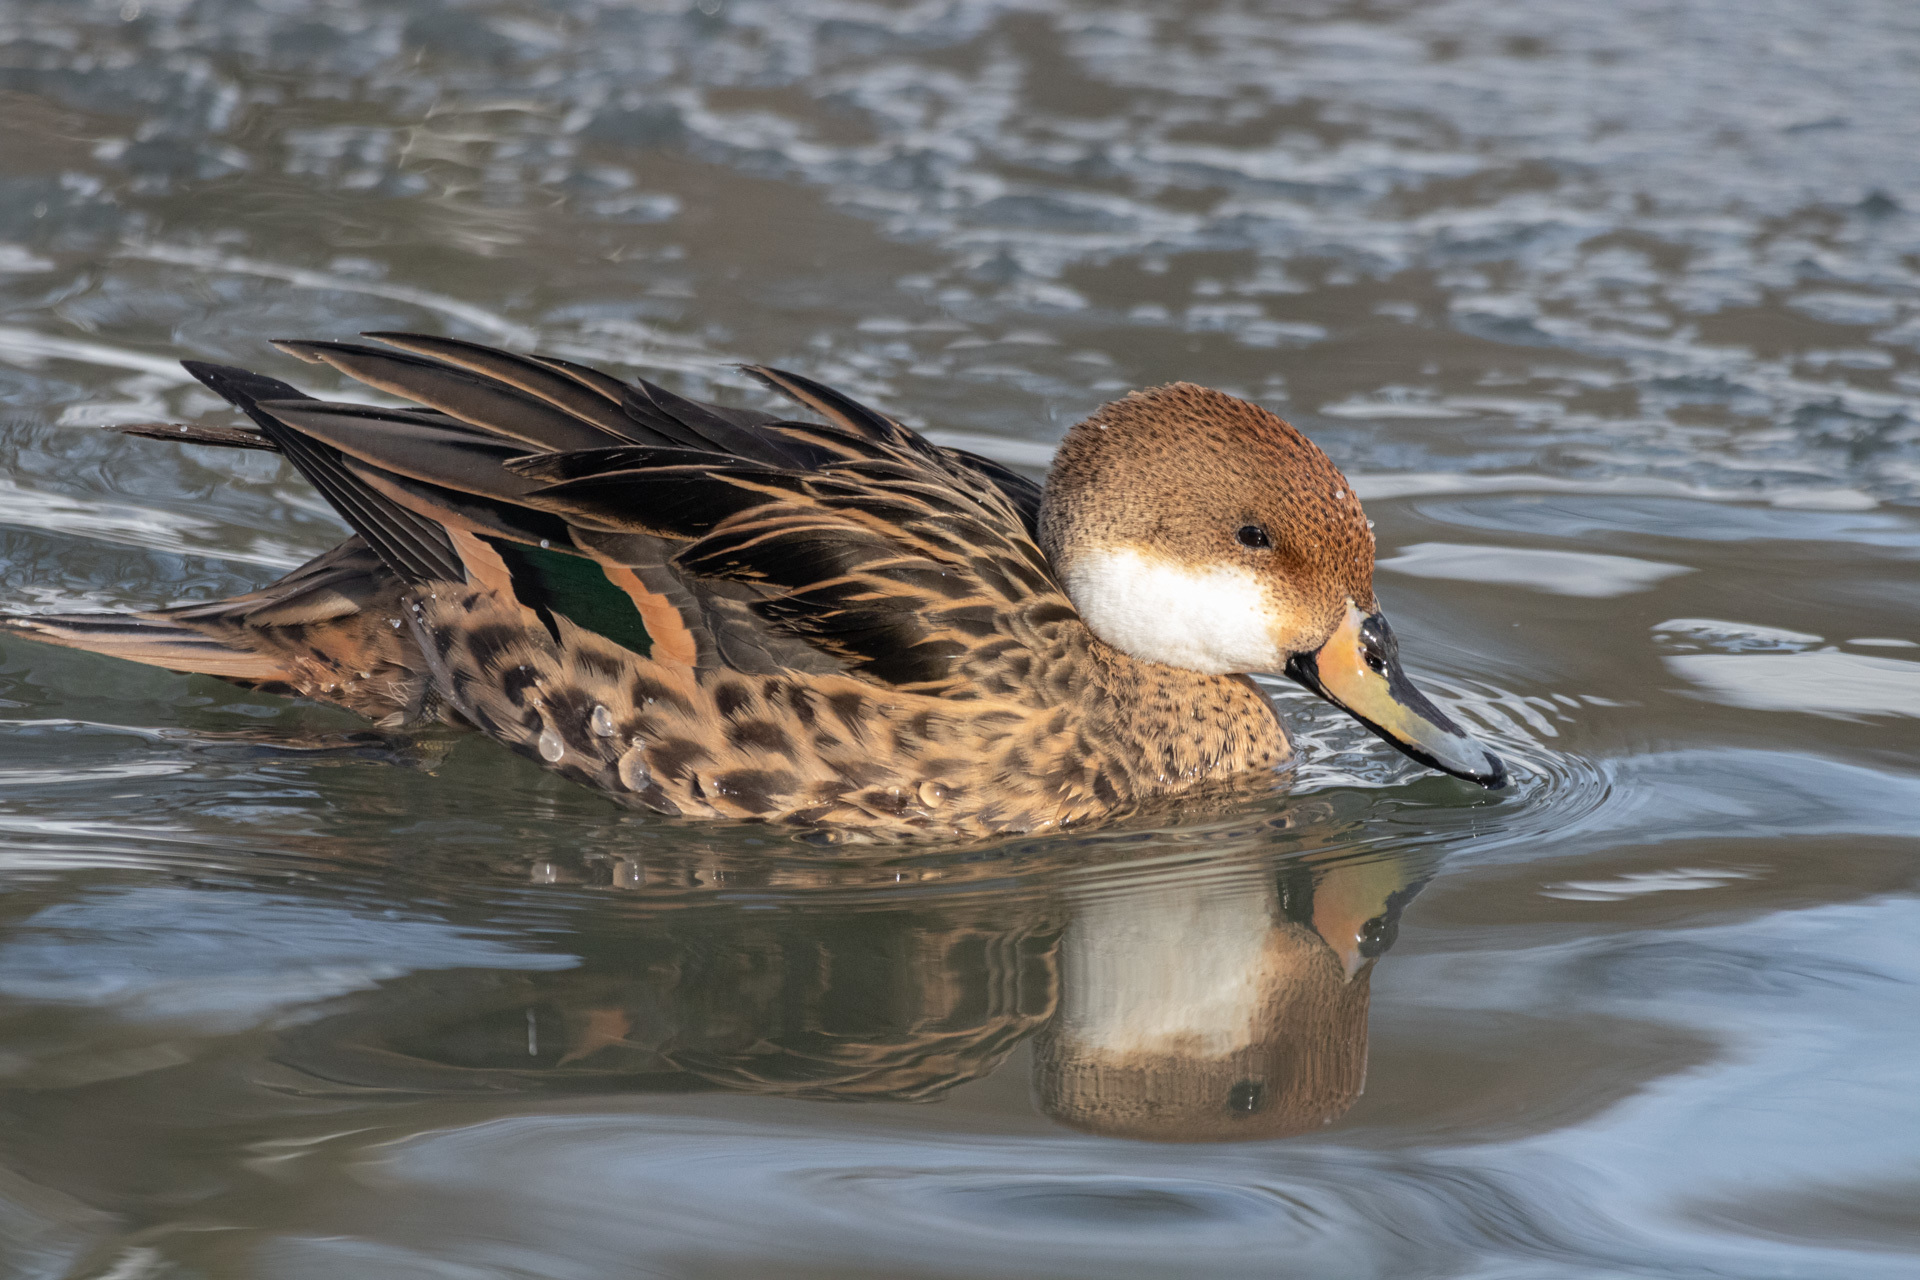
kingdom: Animalia
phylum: Chordata
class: Aves
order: Anseriformes
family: Anatidae
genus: Anas
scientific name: Anas
